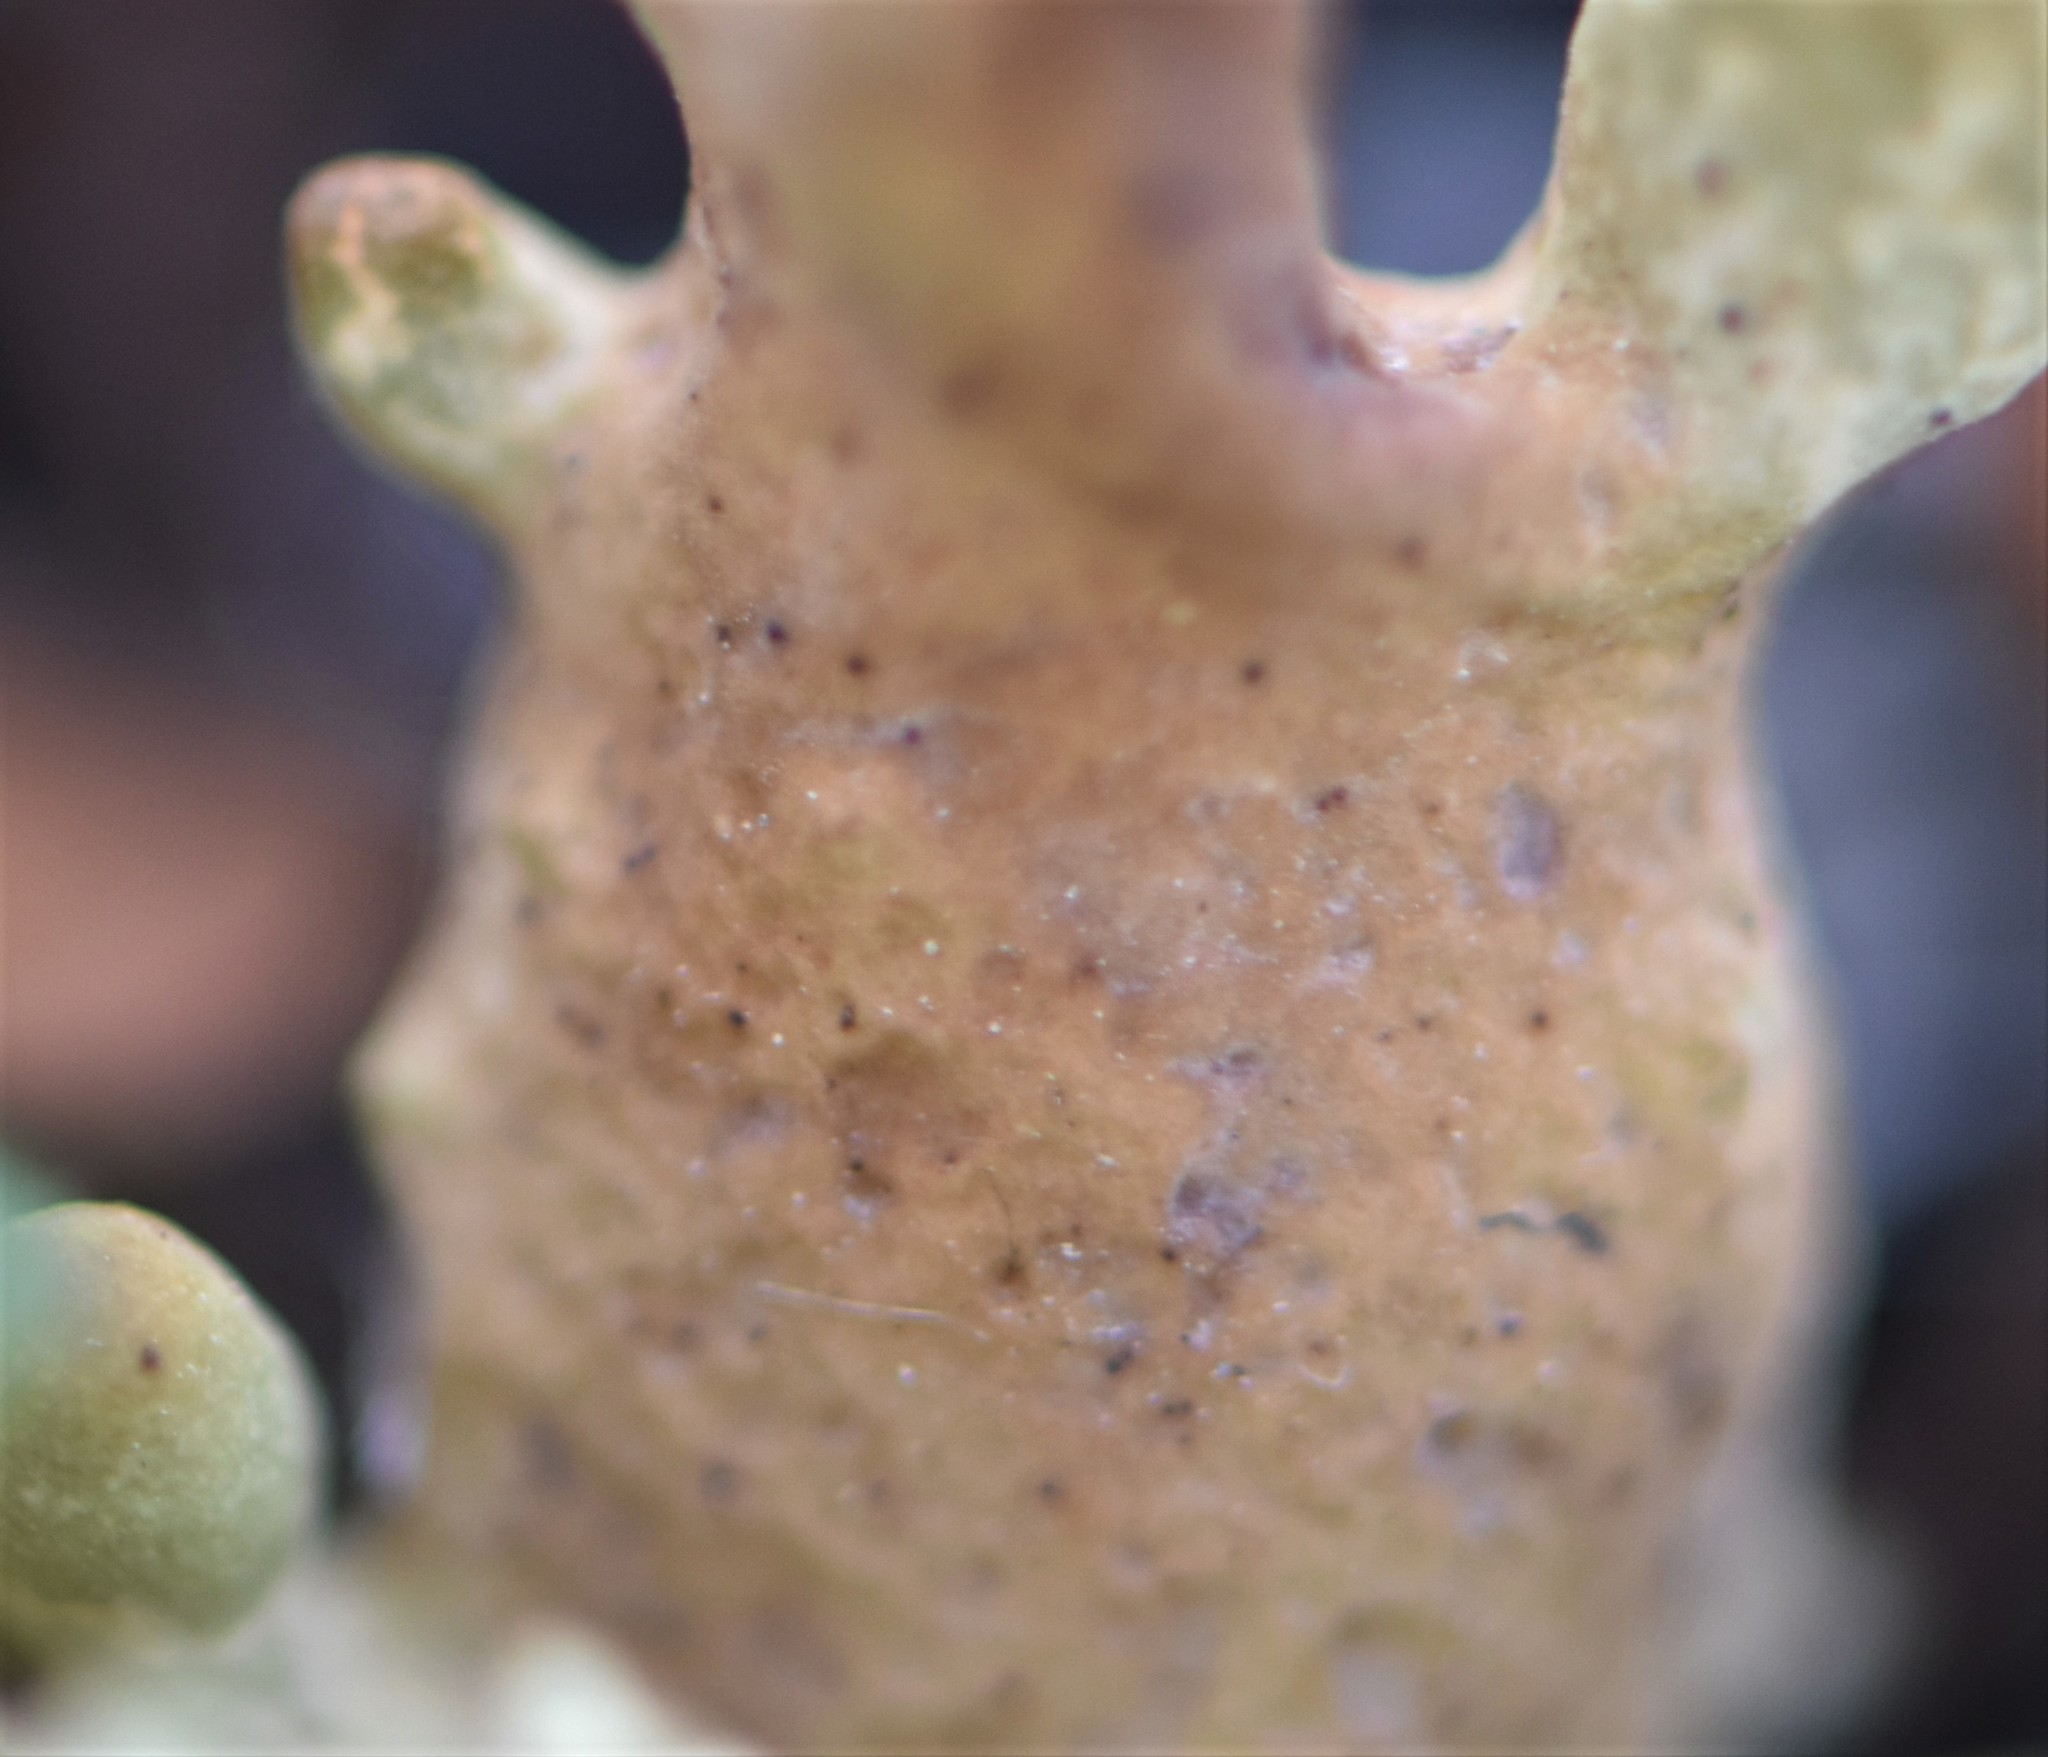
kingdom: Fungi
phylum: Ascomycota
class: Lecanoromycetes
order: Lecanorales
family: Parmeliaceae
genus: Dactylina
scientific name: Dactylina arctica
